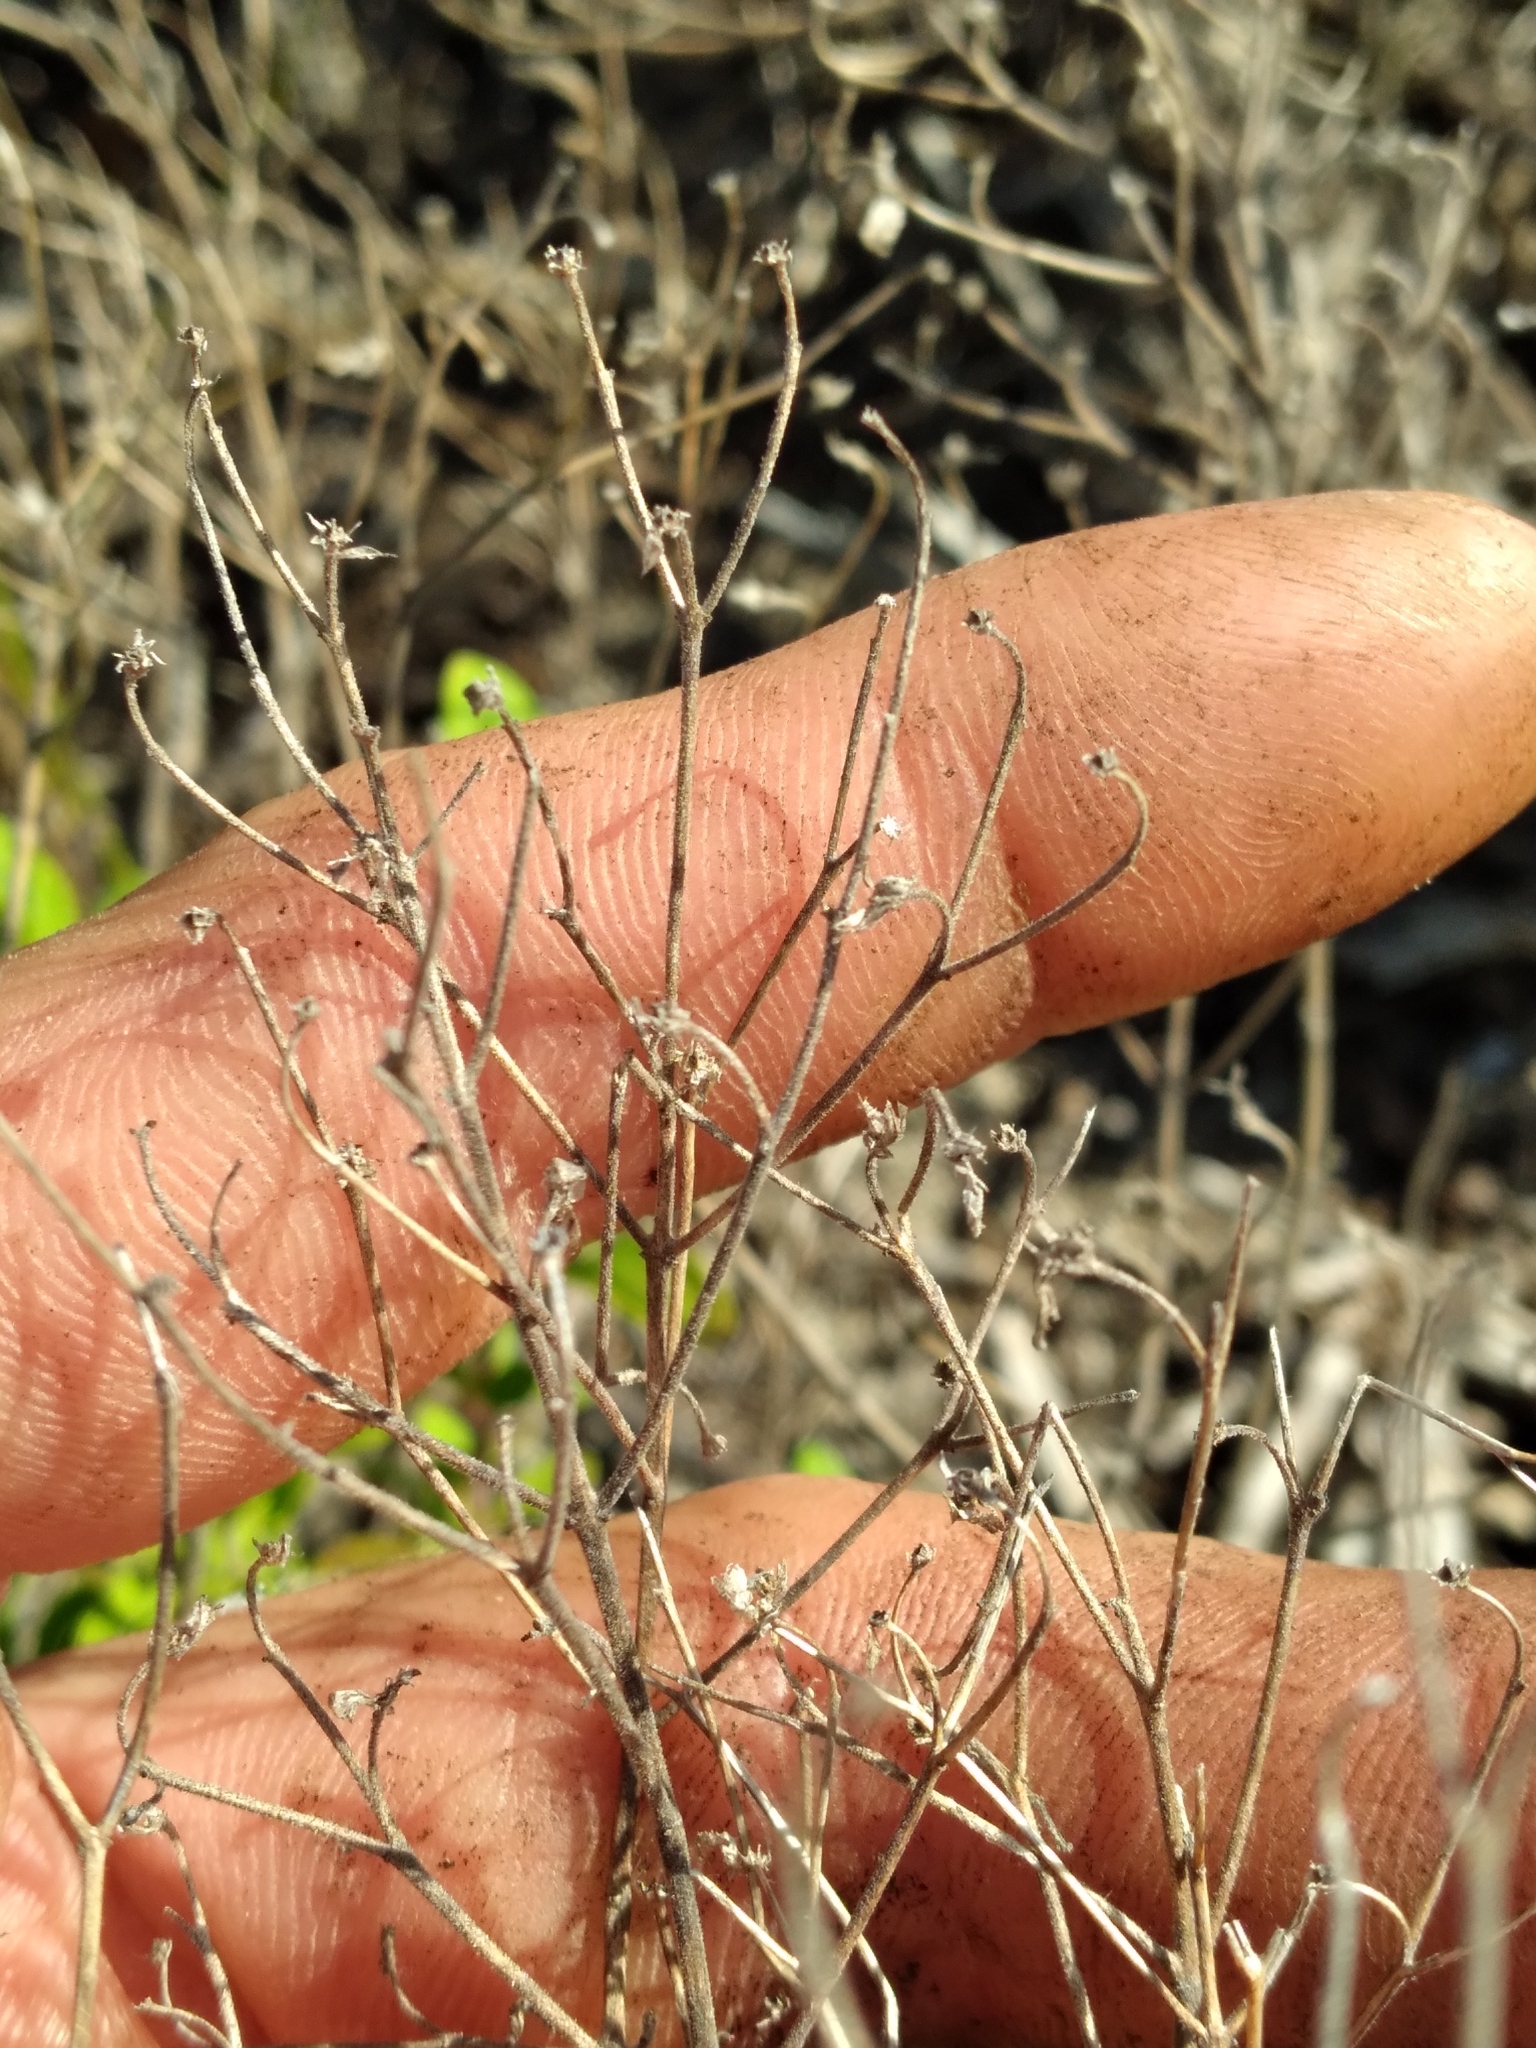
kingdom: Plantae
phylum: Tracheophyta
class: Magnoliopsida
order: Lamiales
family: Lamiaceae
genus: Trichostema
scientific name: Trichostema nesophilum
